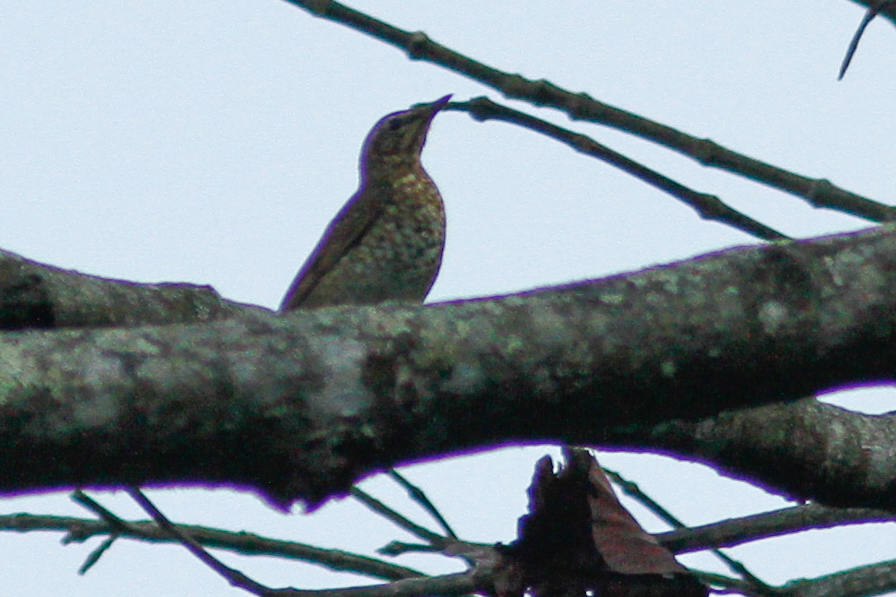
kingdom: Animalia
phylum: Chordata
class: Aves
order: Passeriformes
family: Turdidae
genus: Geokichla
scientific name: Geokichla sibirica
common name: Siberian thrush
